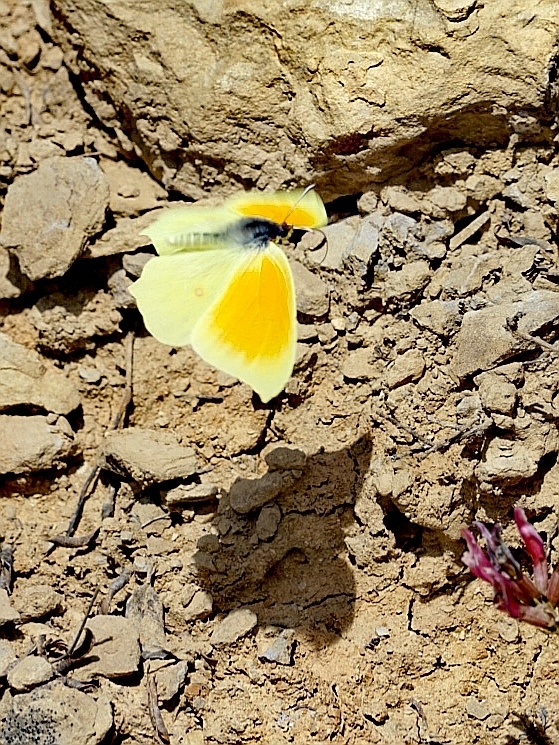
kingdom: Animalia
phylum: Arthropoda
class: Insecta
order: Lepidoptera
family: Pieridae
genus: Gonepteryx
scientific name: Gonepteryx cleopatra
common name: Cleopatra
